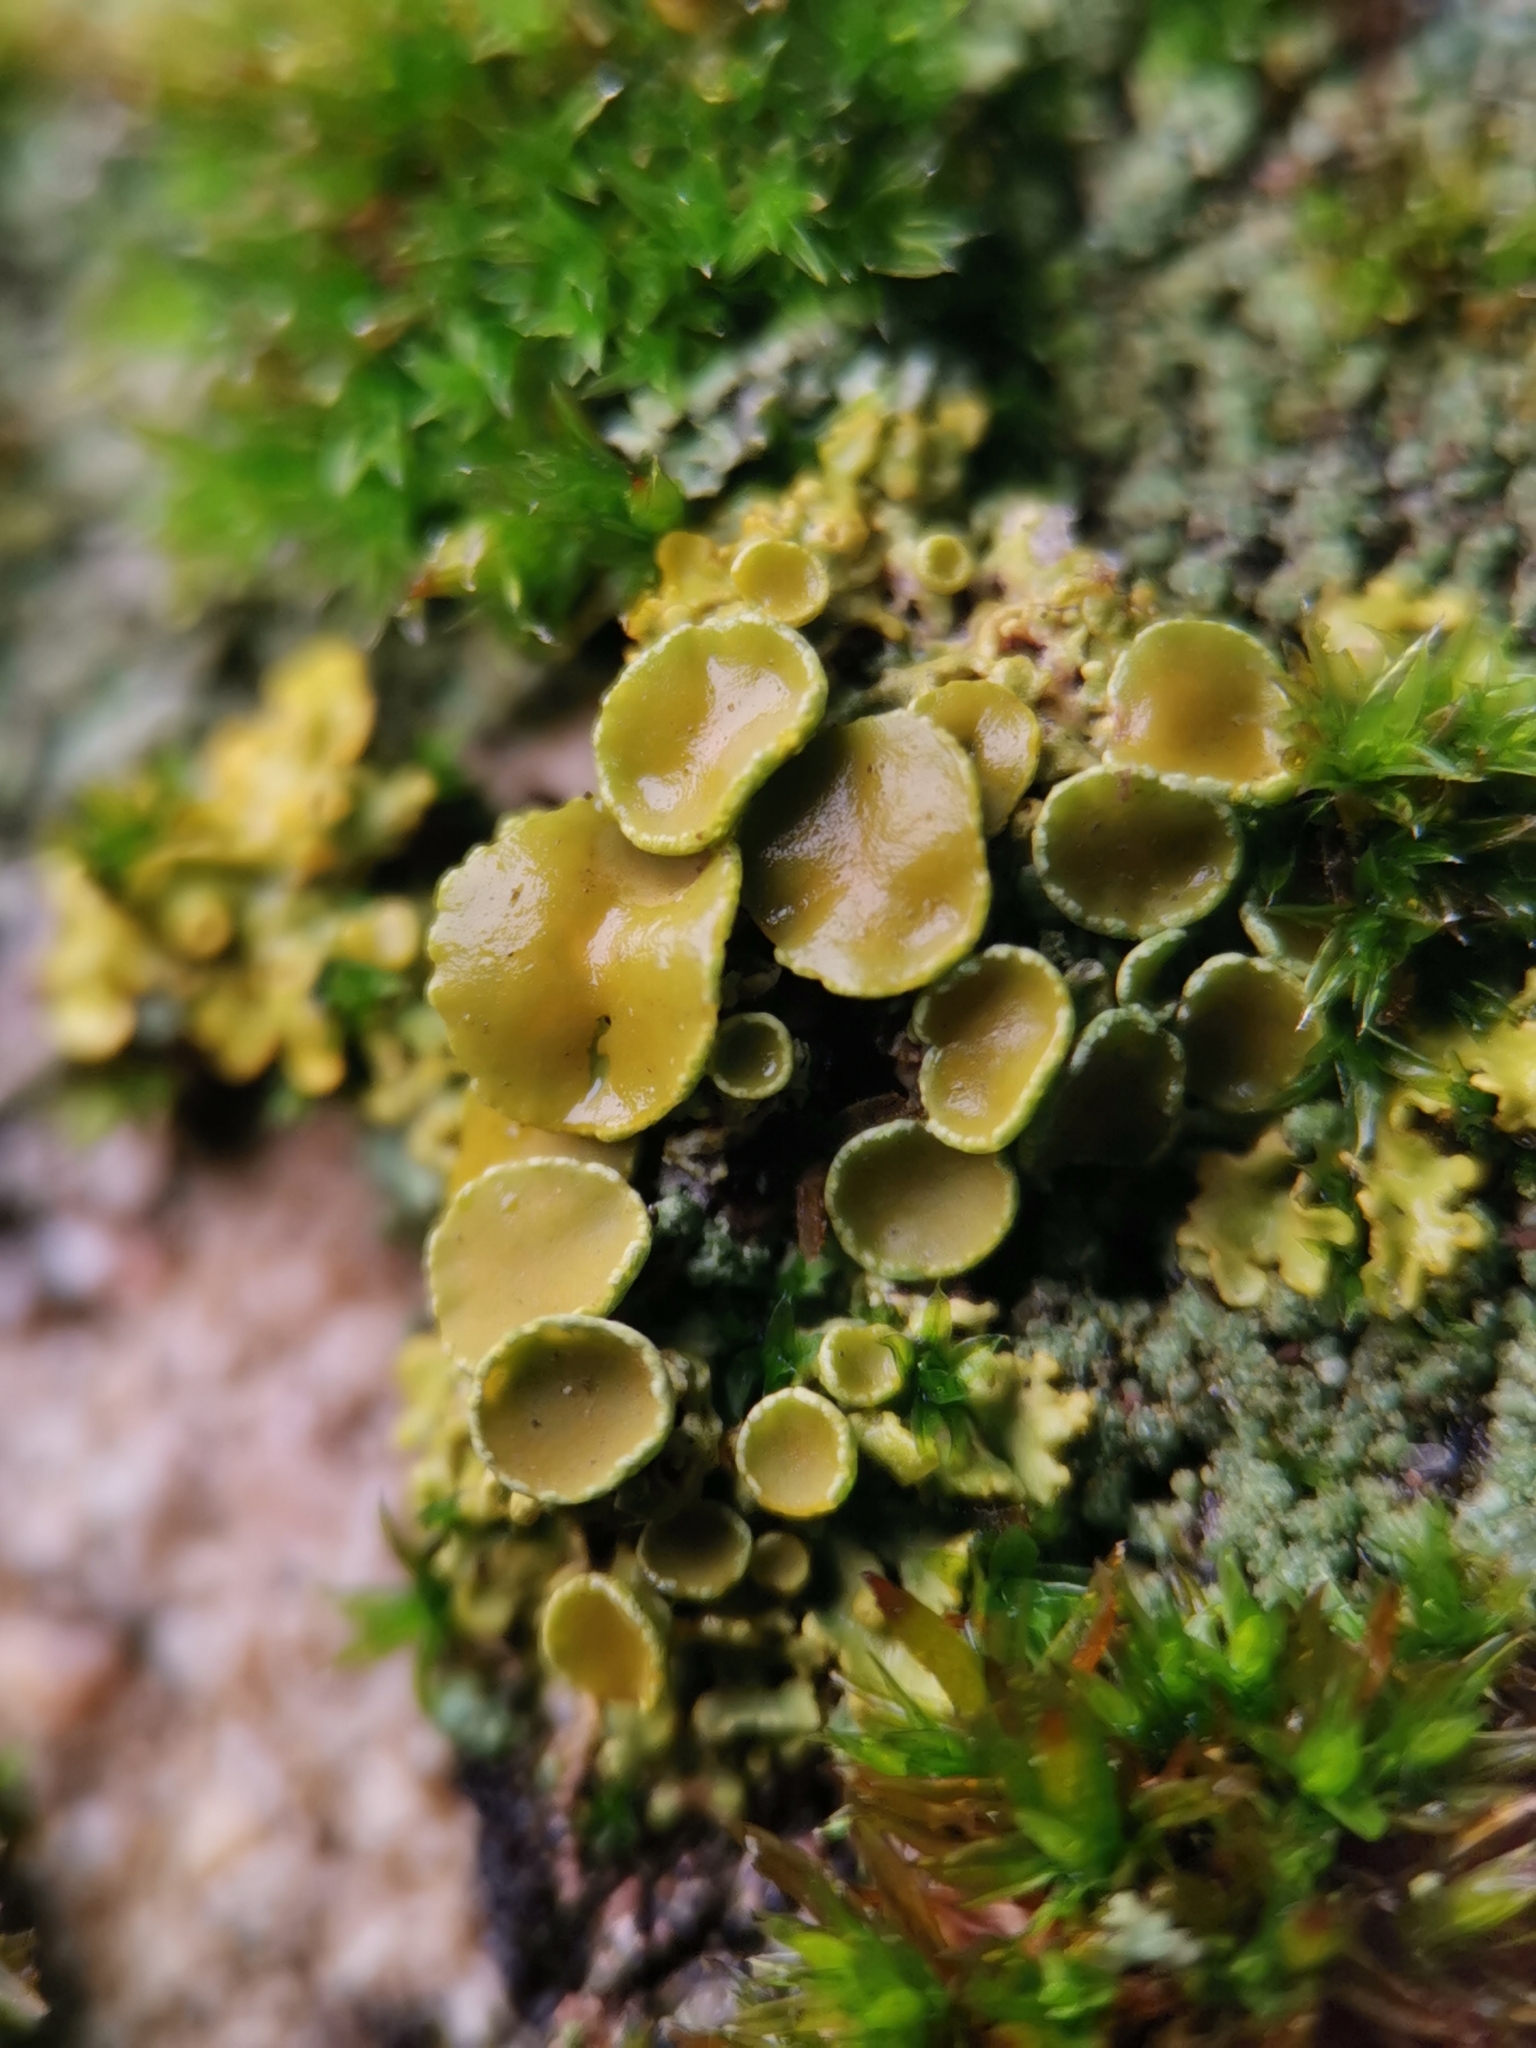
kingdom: Fungi
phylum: Ascomycota
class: Lecanoromycetes
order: Teloschistales
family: Teloschistaceae
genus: Xanthoria
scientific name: Xanthoria parietina
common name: Common orange lichen
